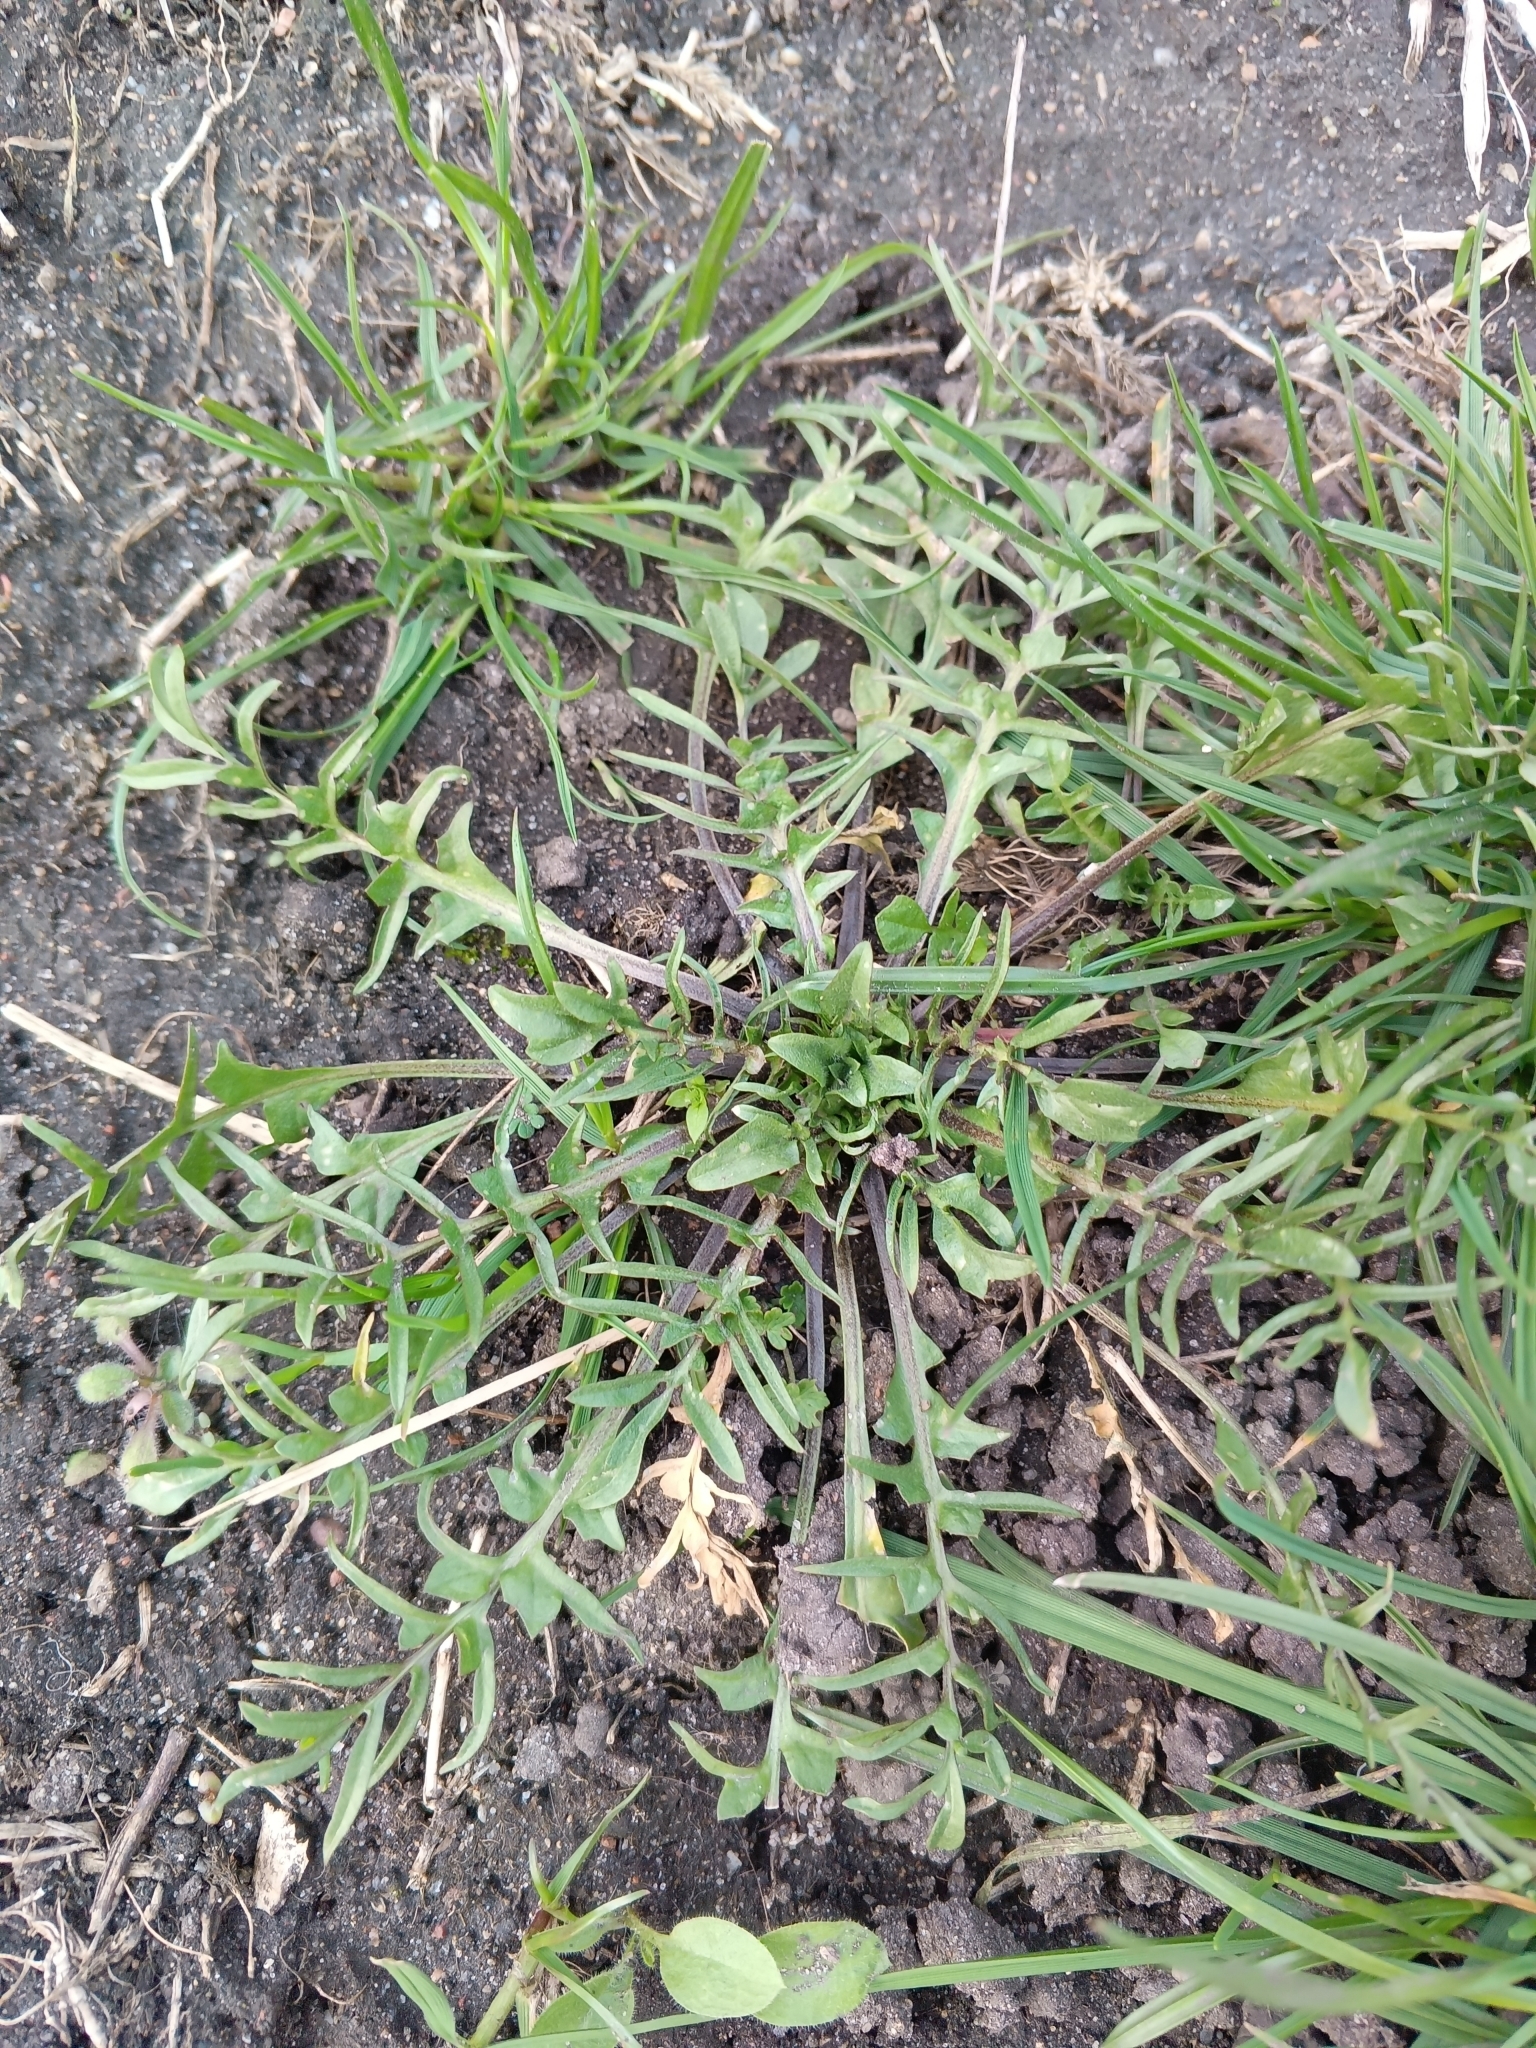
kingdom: Plantae
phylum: Tracheophyta
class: Magnoliopsida
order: Brassicales
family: Brassicaceae
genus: Capsella
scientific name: Capsella bursa-pastoris
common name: Shepherd's purse
